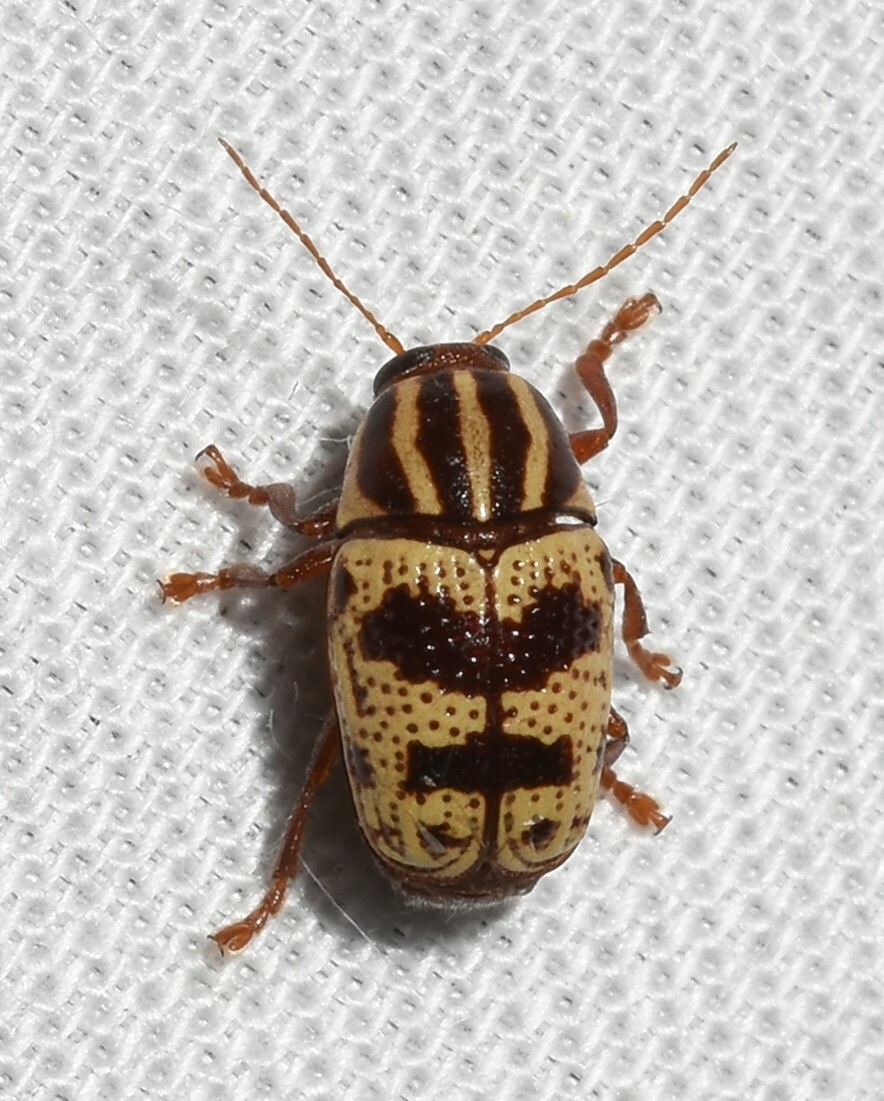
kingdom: Animalia
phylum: Arthropoda
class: Insecta
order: Coleoptera
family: Chrysomelidae
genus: Cryptocephalus
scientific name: Cryptocephalus leucomelas
